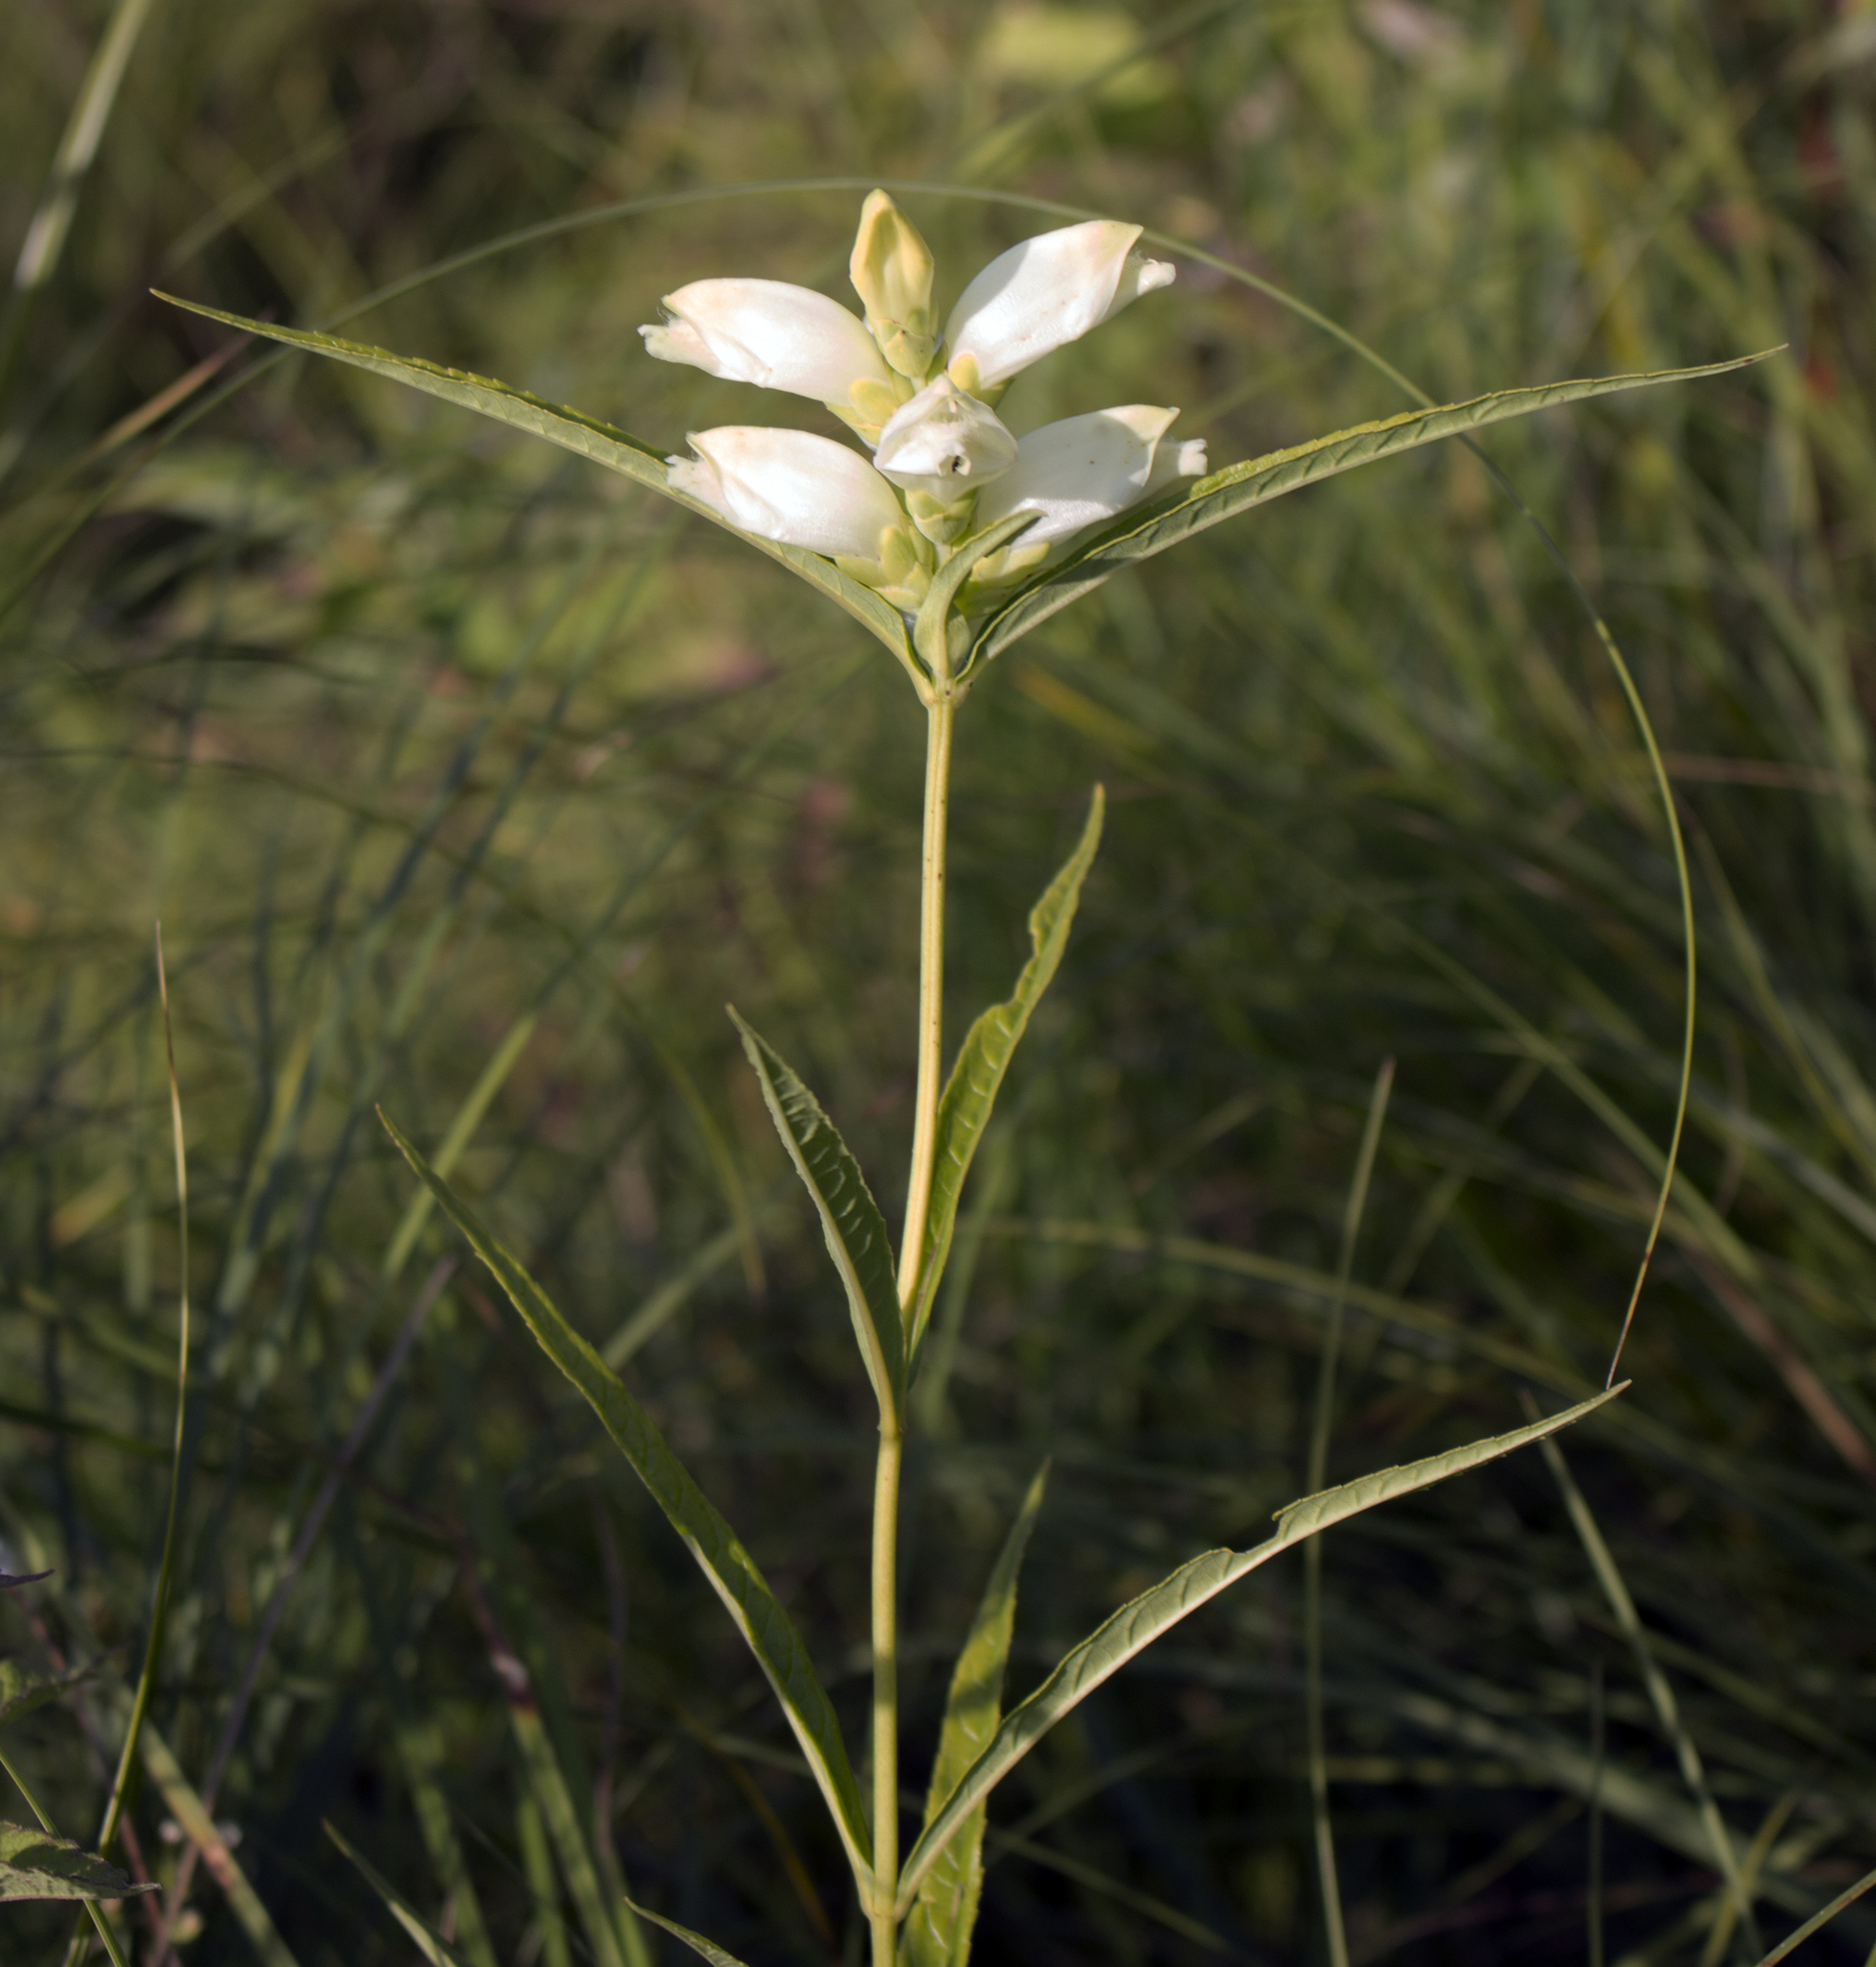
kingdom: Plantae
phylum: Tracheophyta
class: Magnoliopsida
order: Lamiales
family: Plantaginaceae
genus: Chelone
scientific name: Chelone glabra
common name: Snakehead
